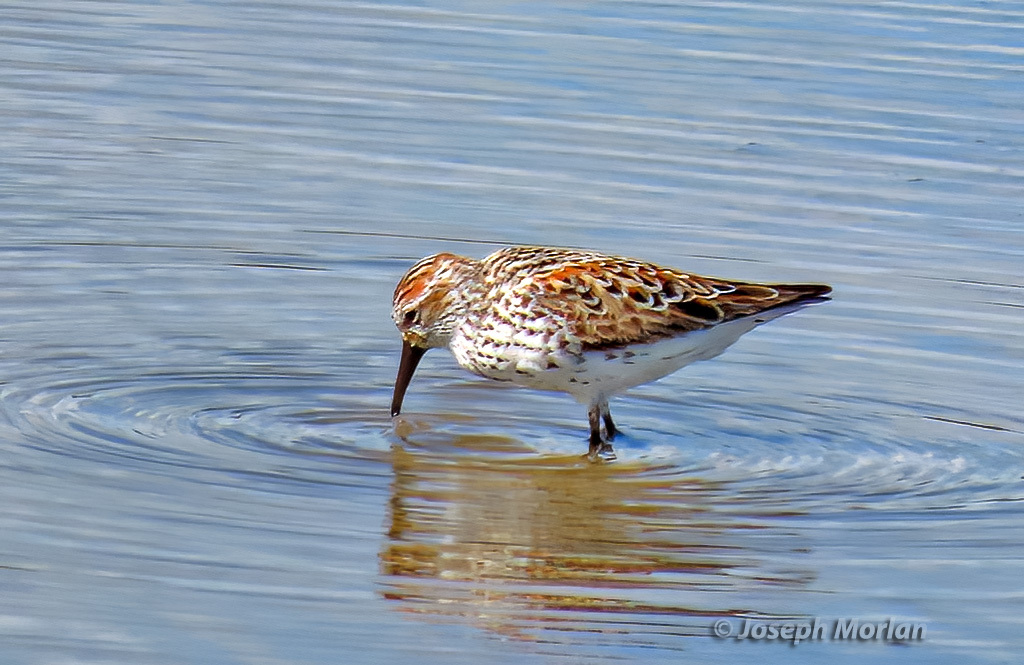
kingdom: Animalia
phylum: Chordata
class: Aves
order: Charadriiformes
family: Scolopacidae
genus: Calidris
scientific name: Calidris mauri
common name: Western sandpiper
